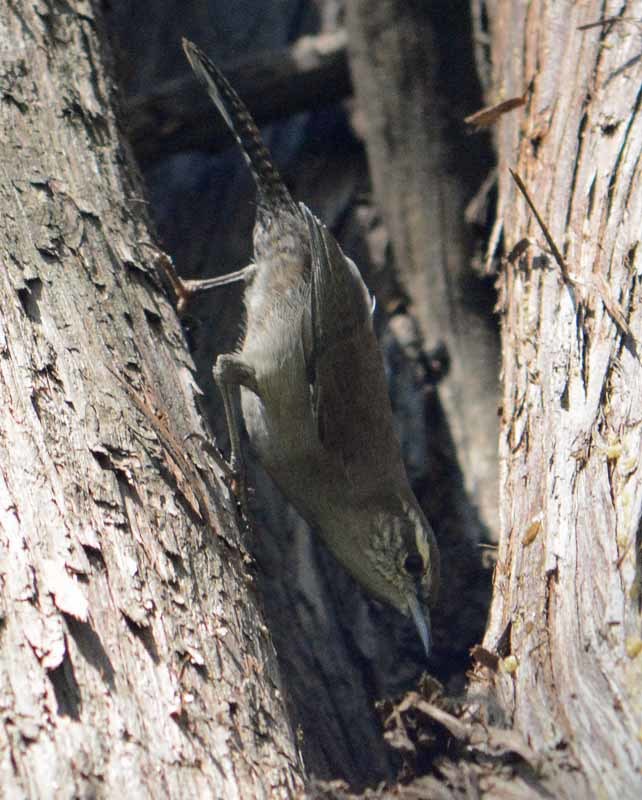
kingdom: Animalia
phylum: Chordata
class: Aves
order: Passeriformes
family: Troglodytidae
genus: Thryomanes
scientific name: Thryomanes bewickii
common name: Bewick's wren
